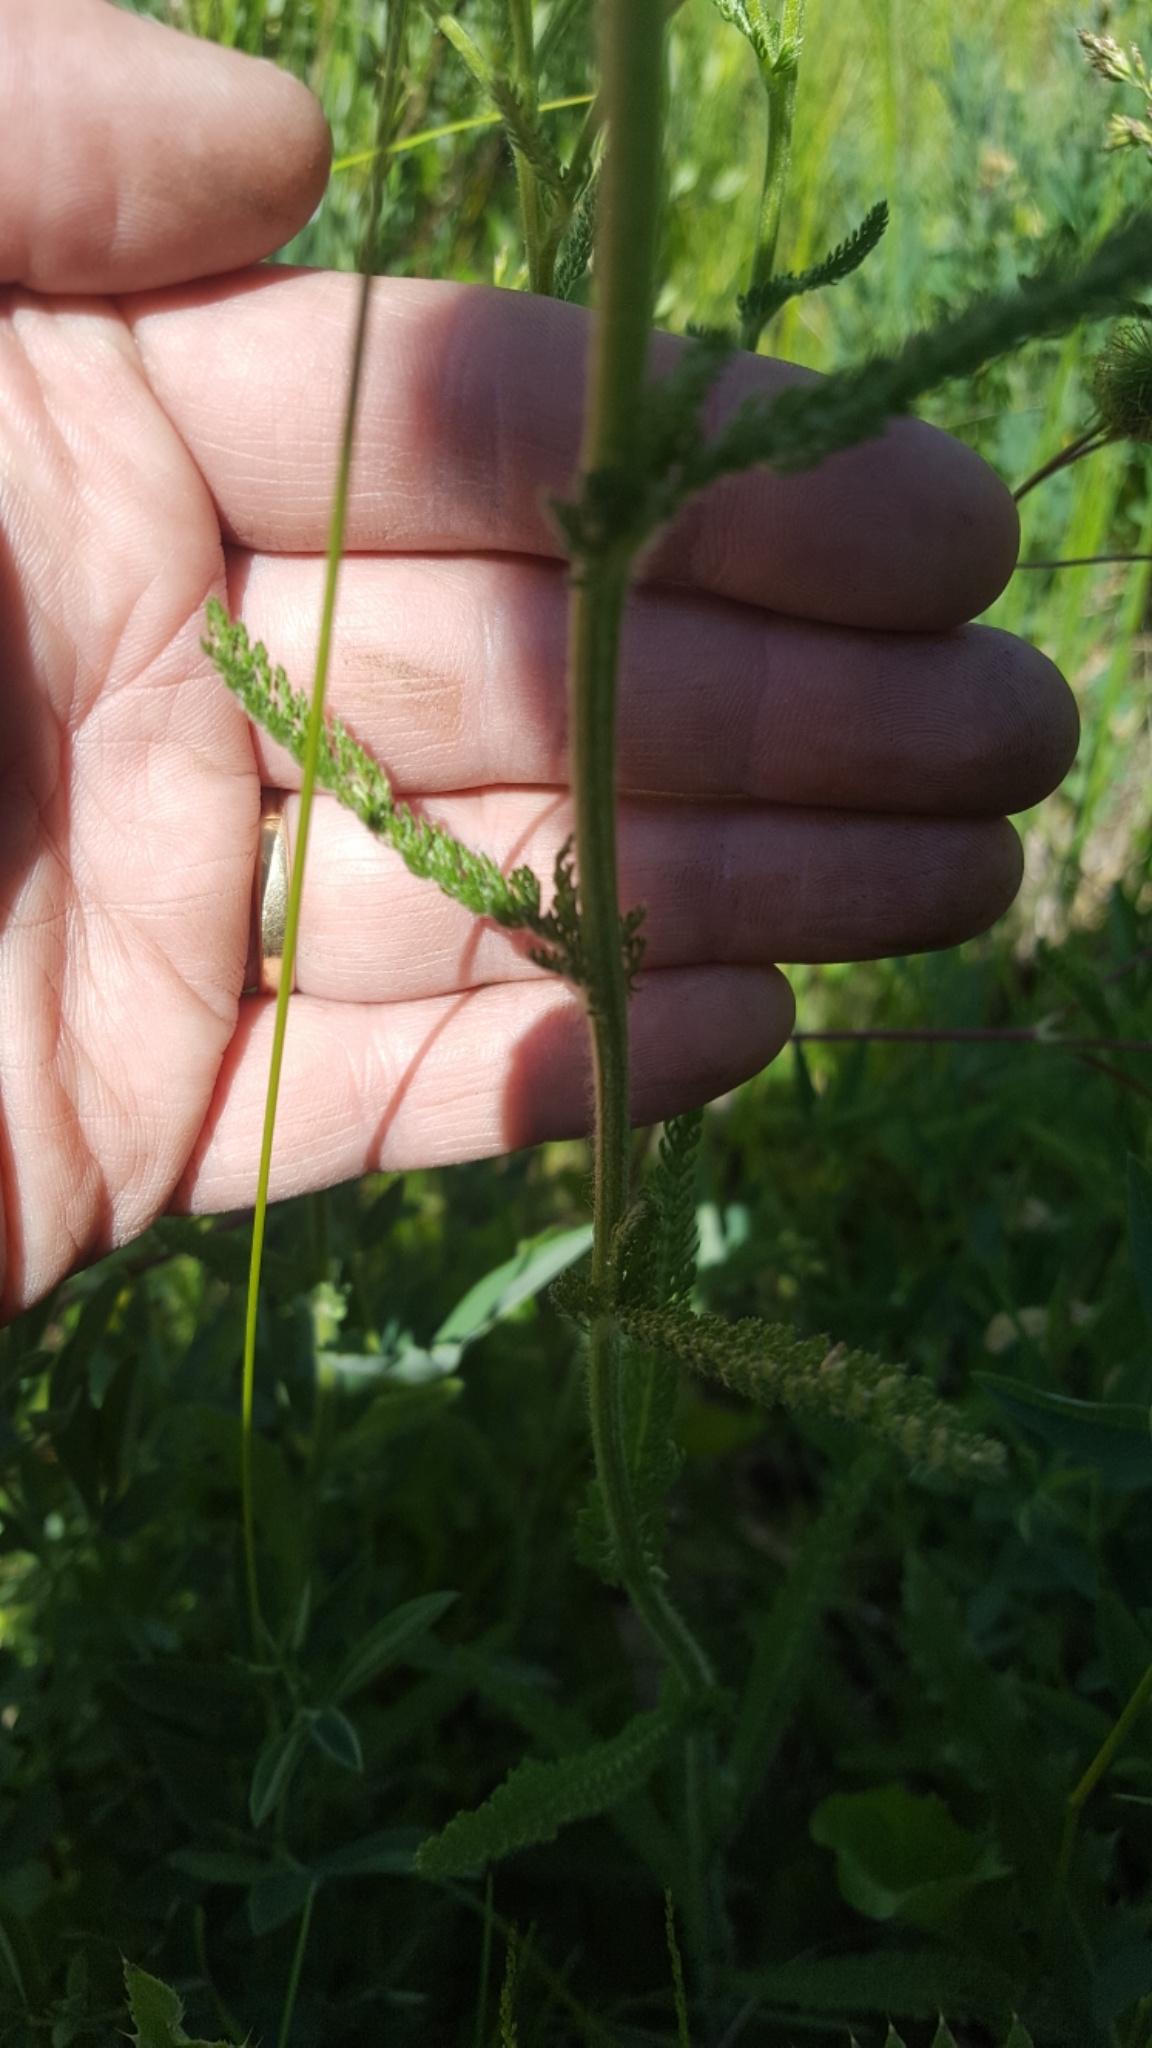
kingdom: Plantae
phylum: Tracheophyta
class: Magnoliopsida
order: Asterales
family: Asteraceae
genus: Achillea
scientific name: Achillea millefolium
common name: Yarrow
